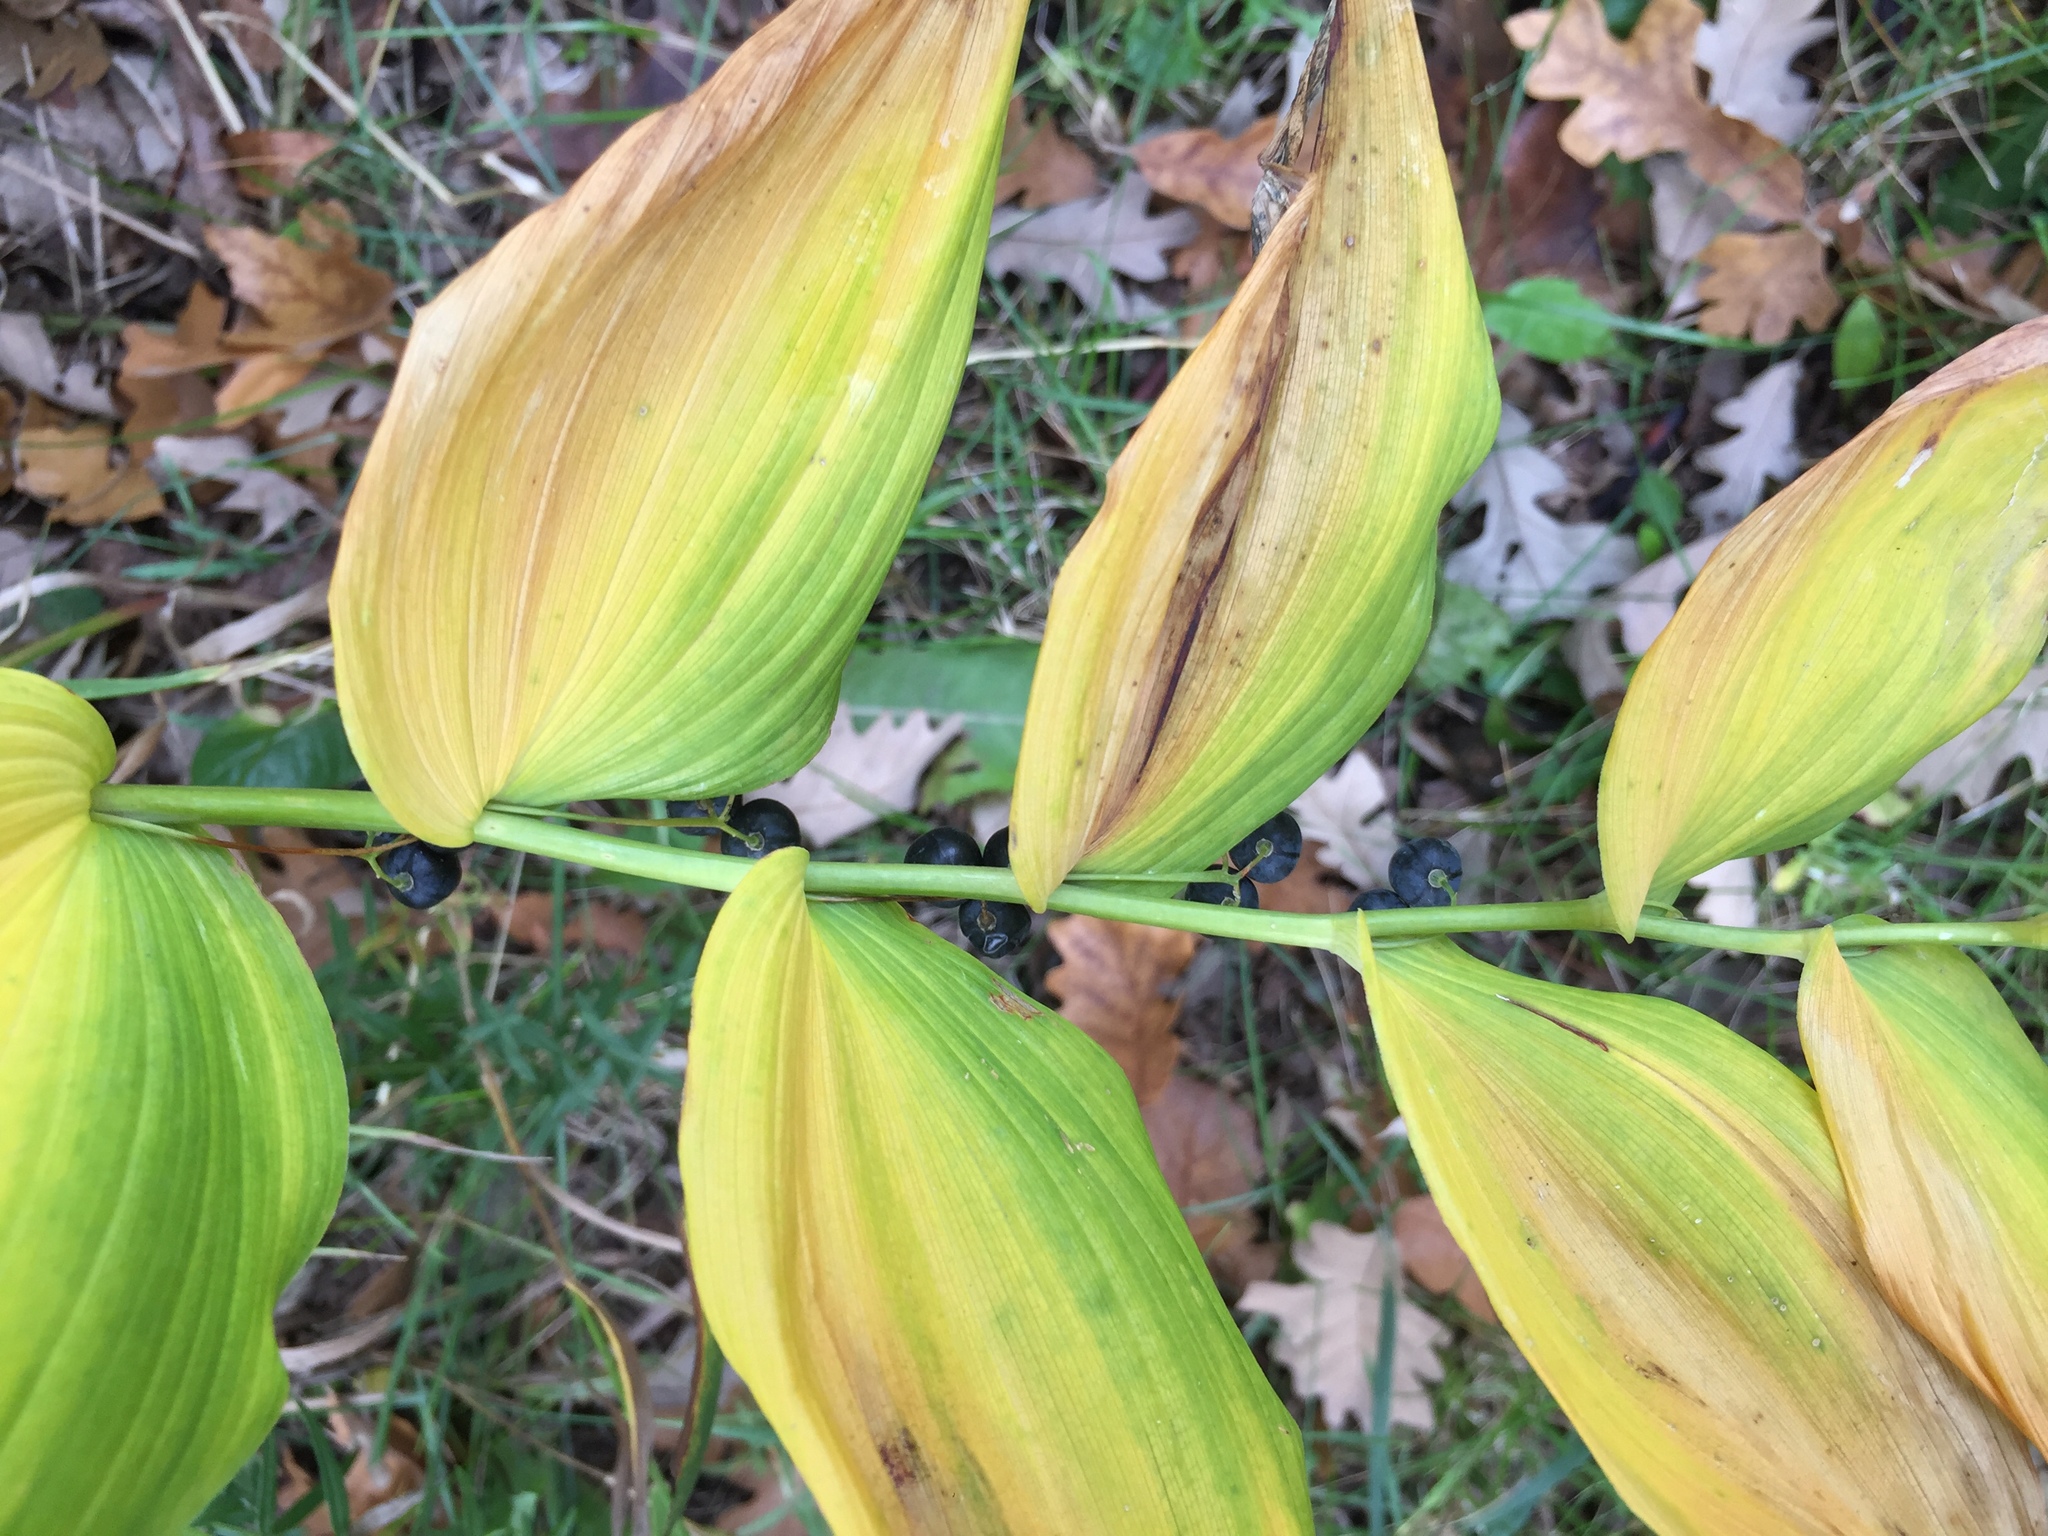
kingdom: Plantae
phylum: Tracheophyta
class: Liliopsida
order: Asparagales
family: Asparagaceae
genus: Polygonatum
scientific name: Polygonatum biflorum
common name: American solomon's-seal
